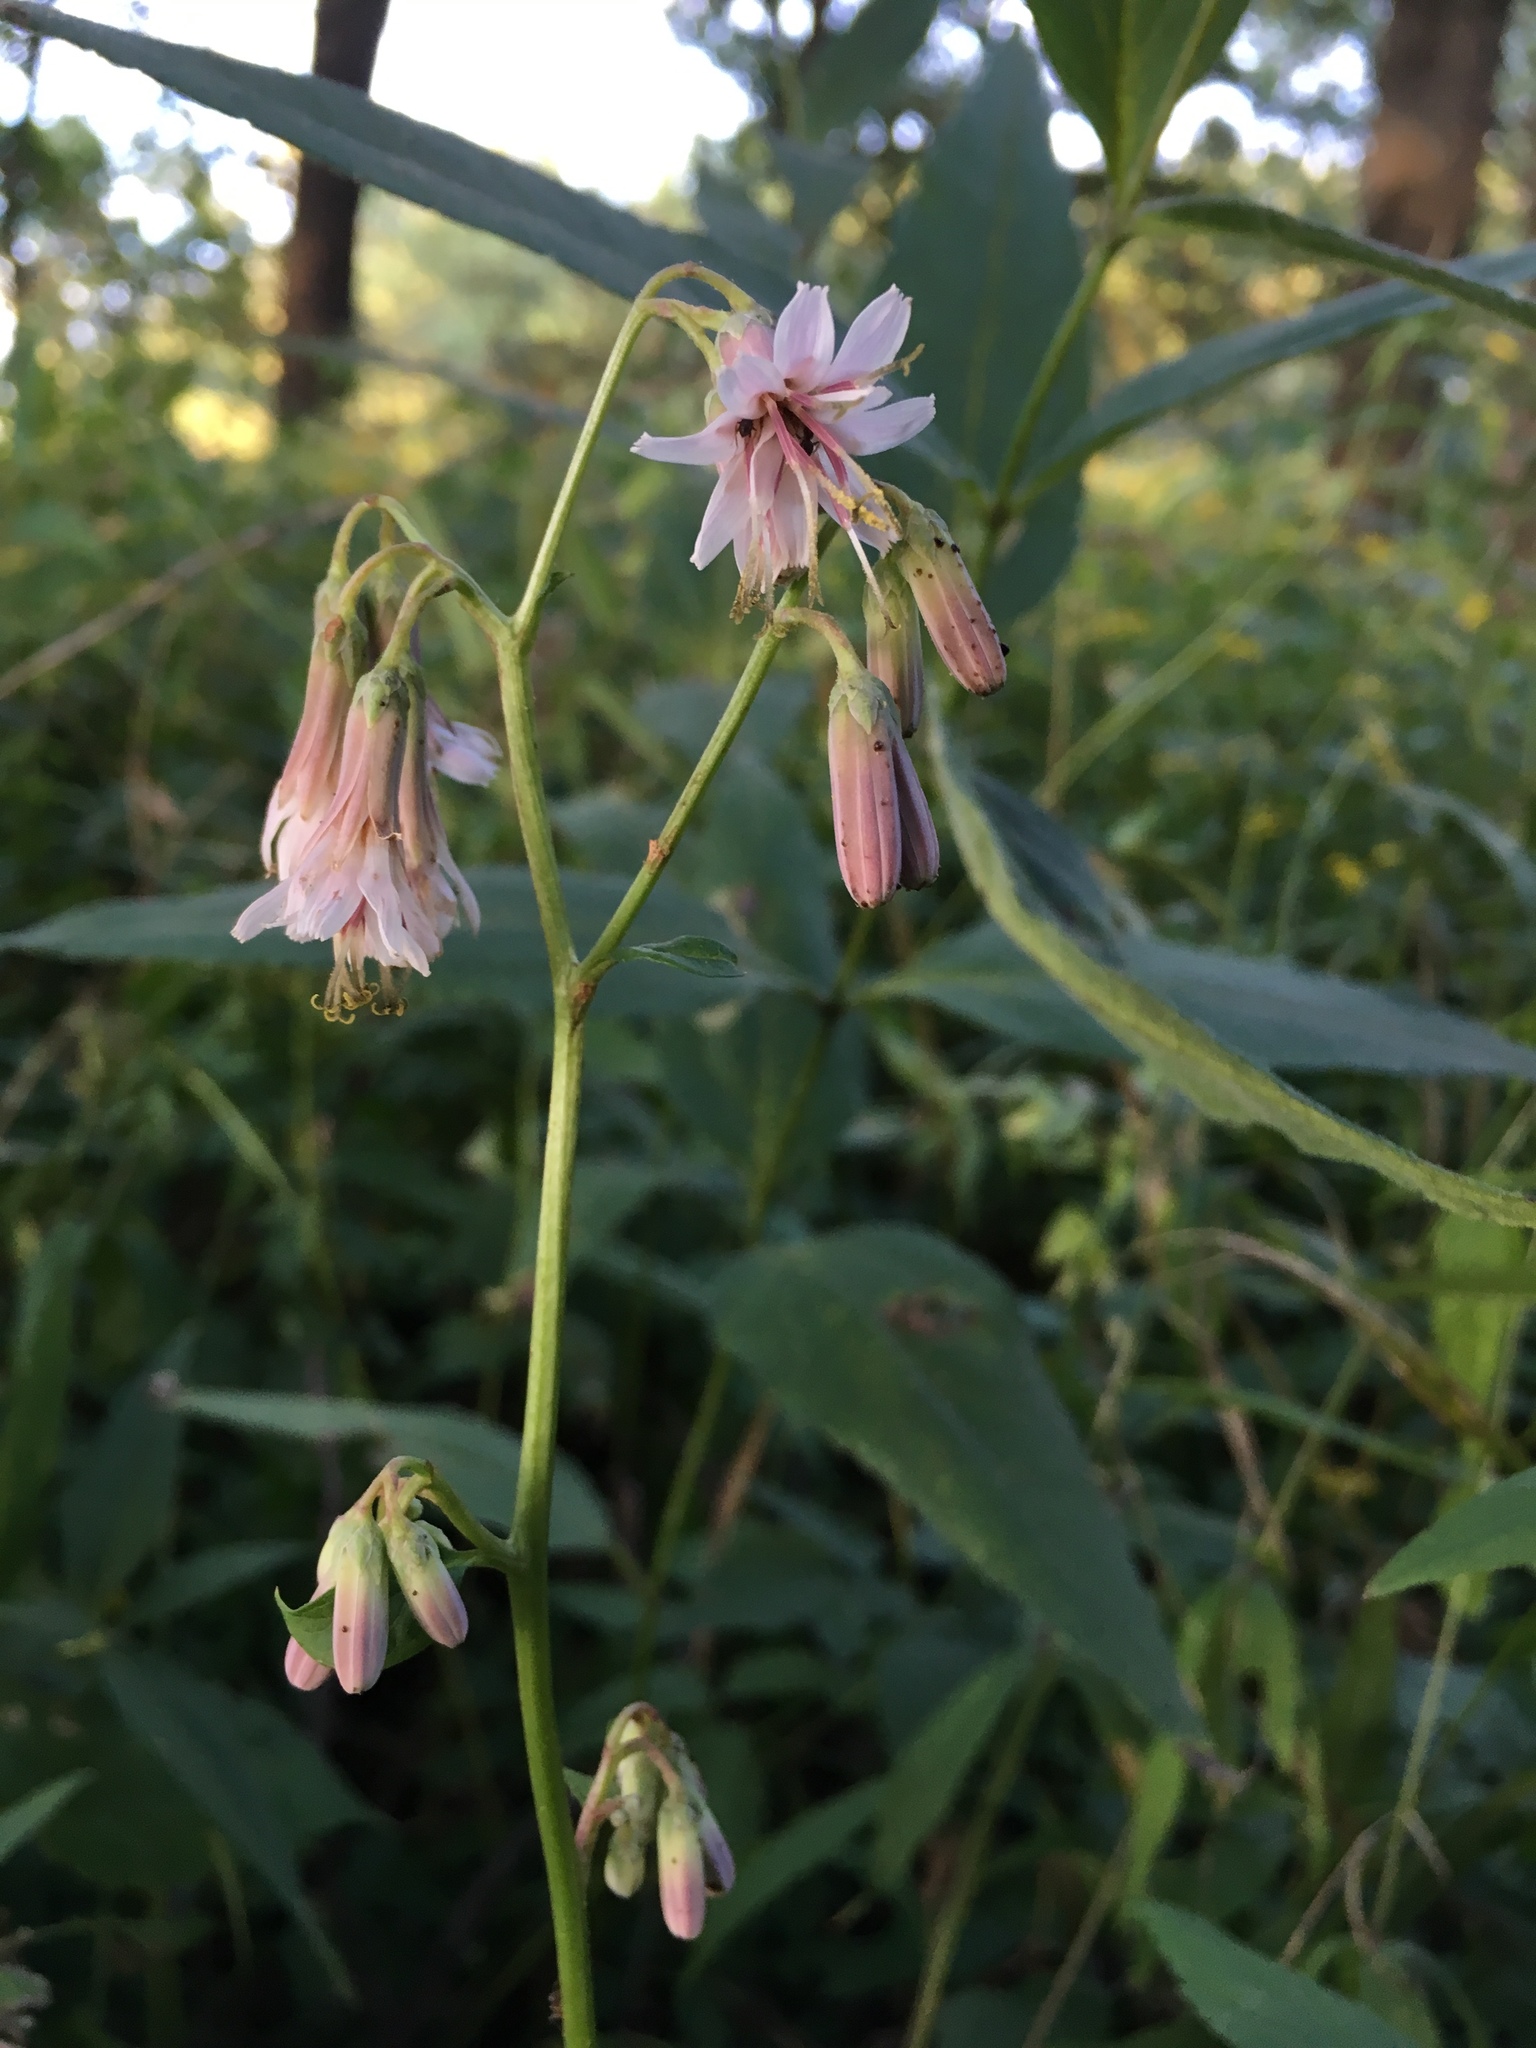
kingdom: Plantae
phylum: Tracheophyta
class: Magnoliopsida
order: Asterales
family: Asteraceae
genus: Nabalus
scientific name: Nabalus albus
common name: White rattlesnakeroot
